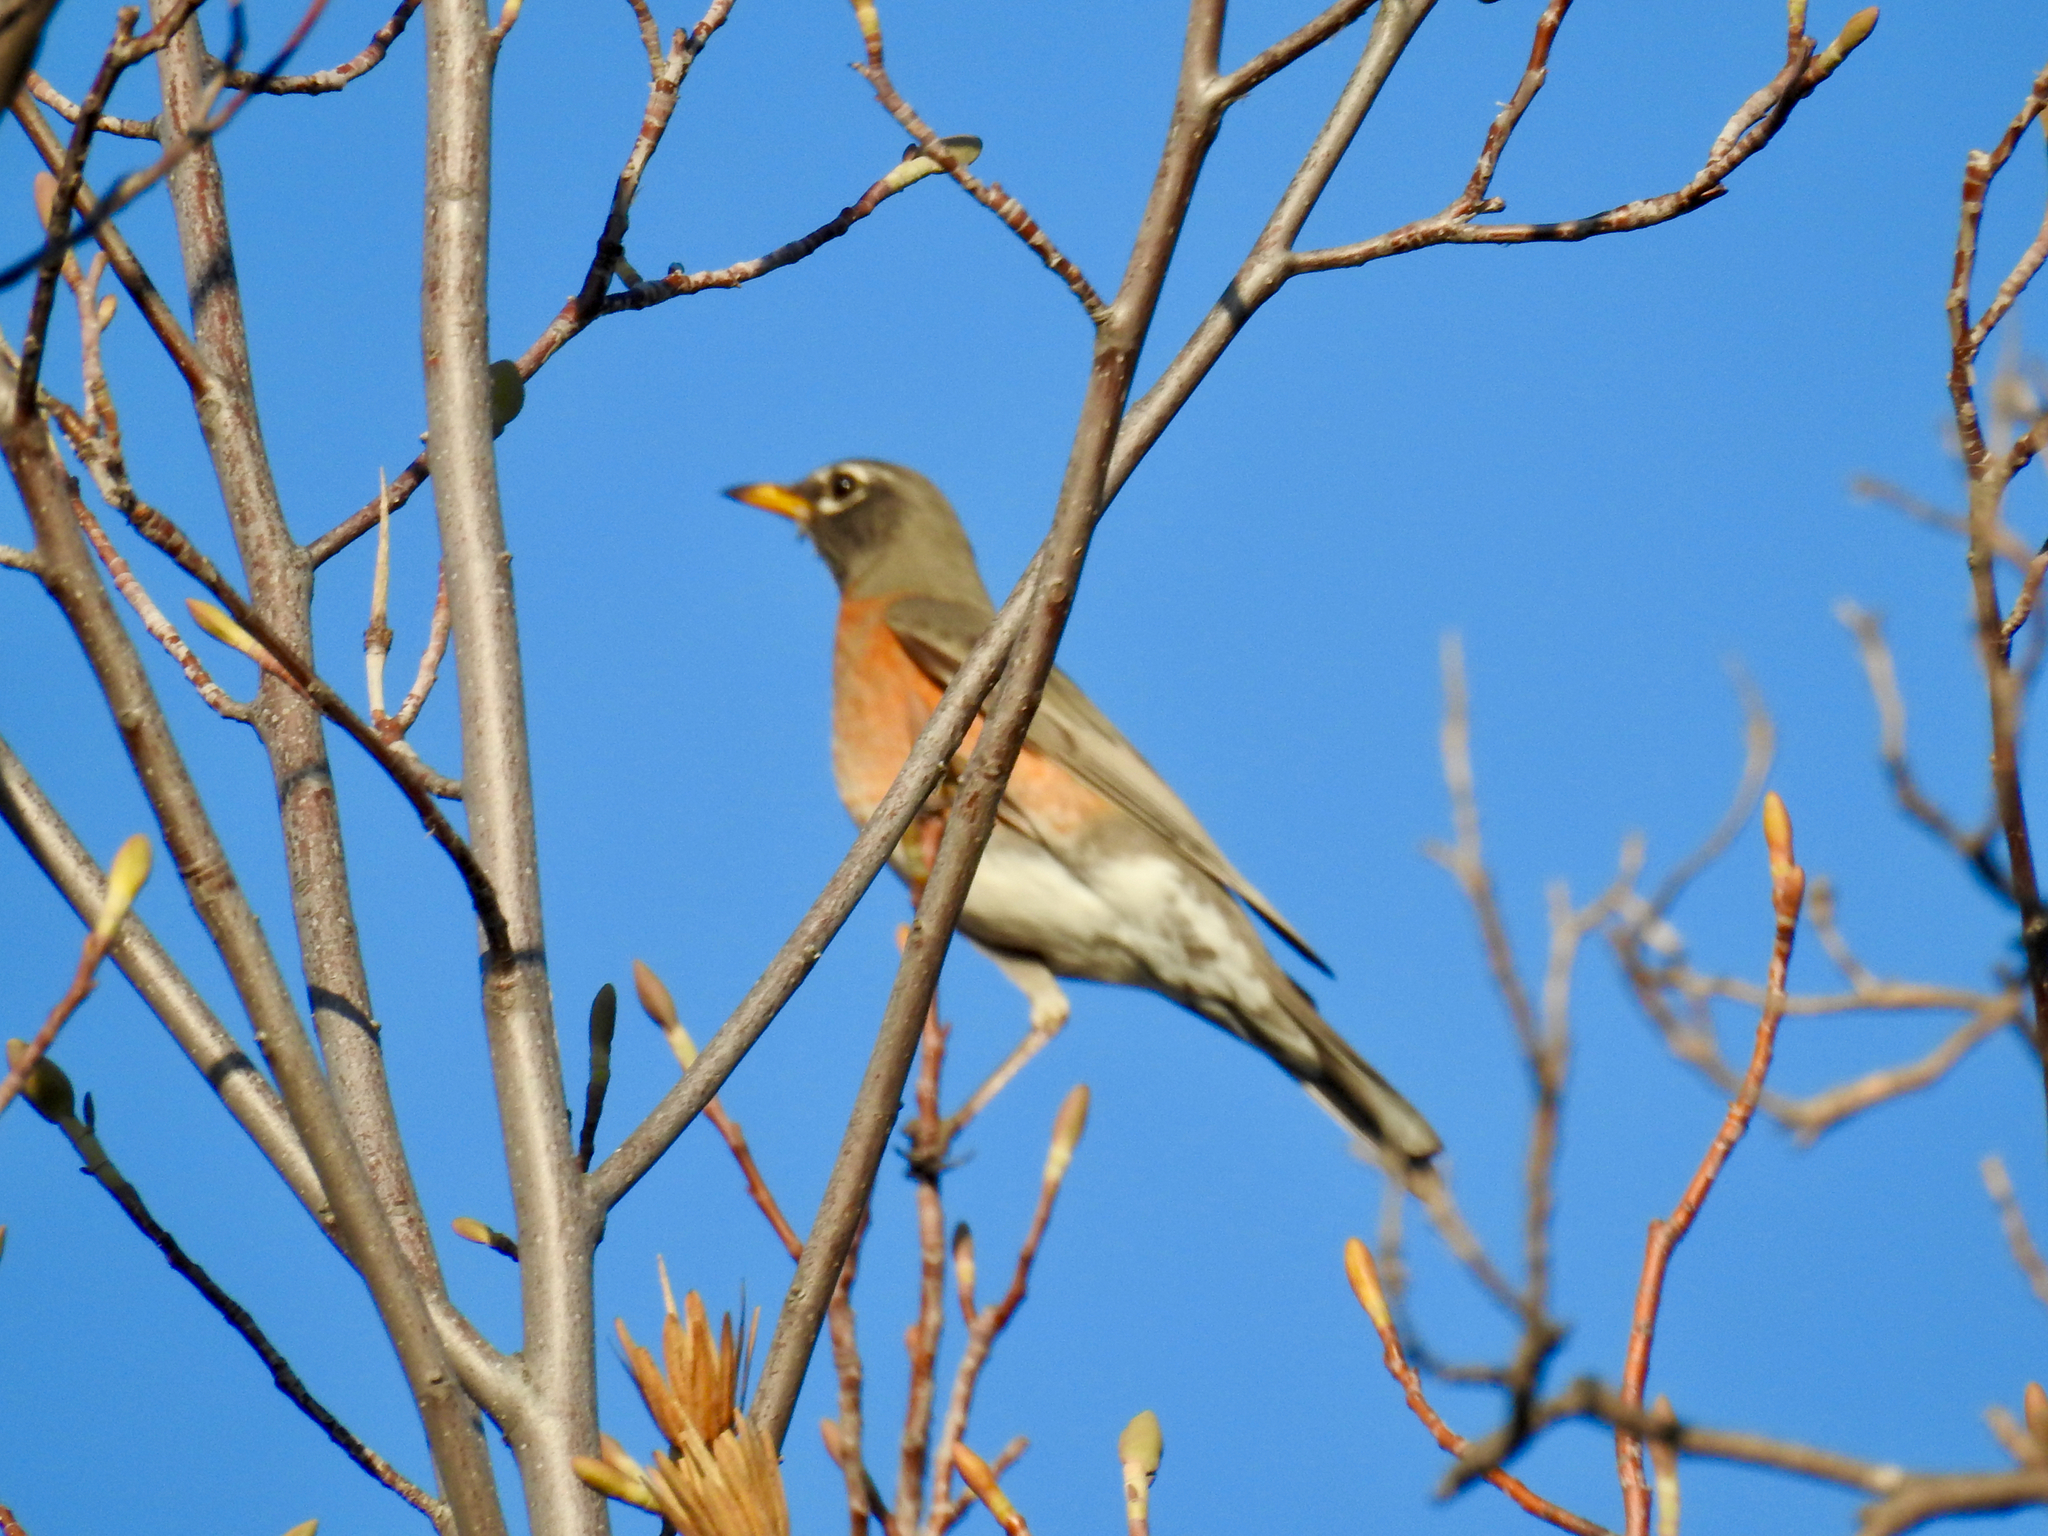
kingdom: Animalia
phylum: Chordata
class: Aves
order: Passeriformes
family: Turdidae
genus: Turdus
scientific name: Turdus migratorius
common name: American robin
